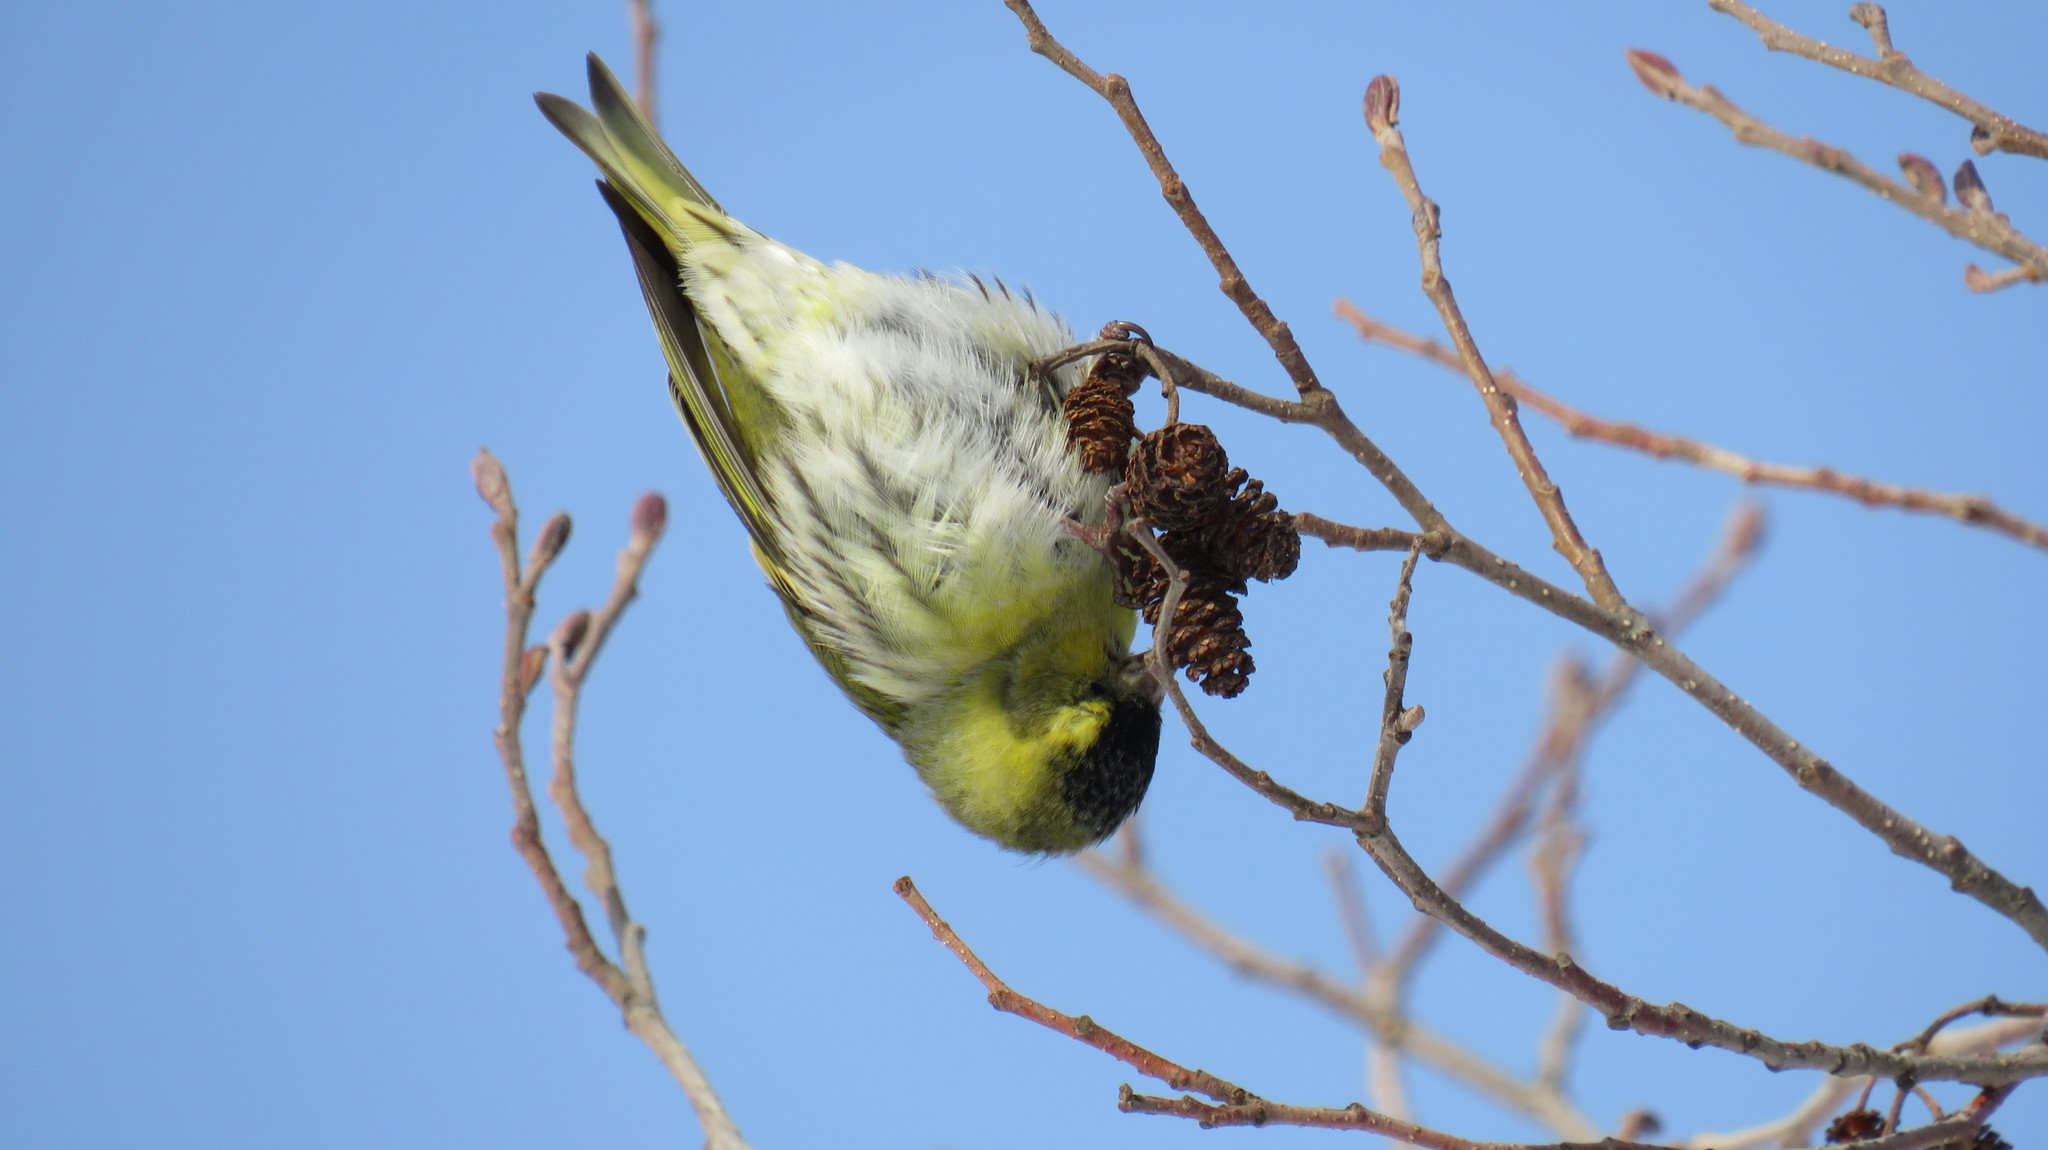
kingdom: Animalia
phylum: Chordata
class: Aves
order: Passeriformes
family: Fringillidae
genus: Spinus
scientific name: Spinus spinus
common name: Eurasian siskin
